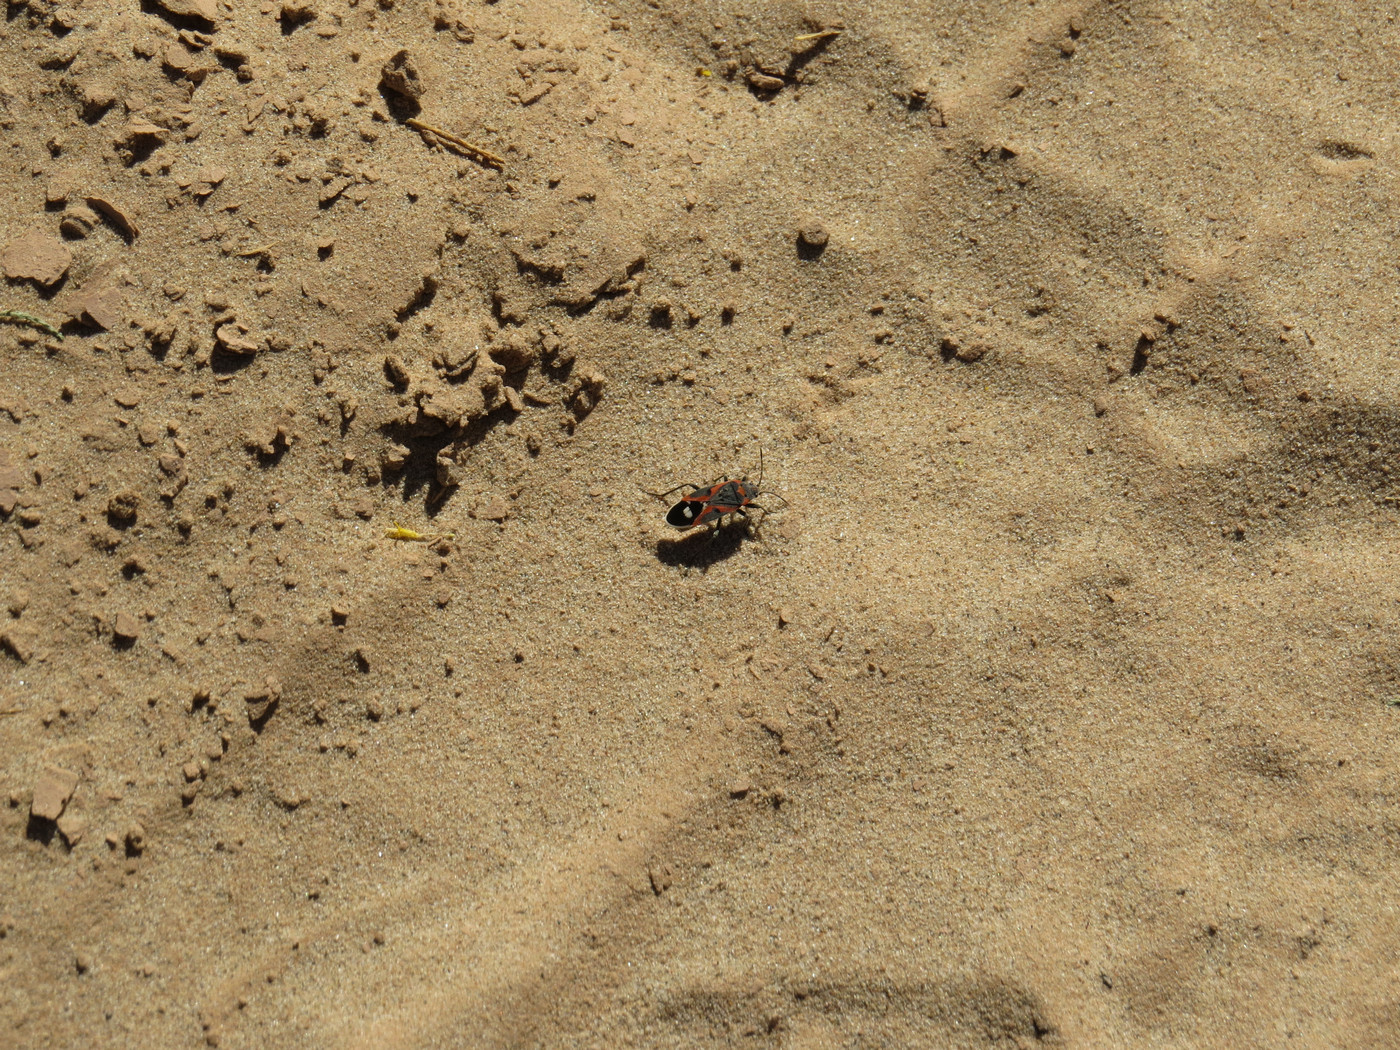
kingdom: Animalia
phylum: Arthropoda
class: Insecta
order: Hemiptera
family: Lygaeidae
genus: Lygaeus
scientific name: Lygaeus kalmii
